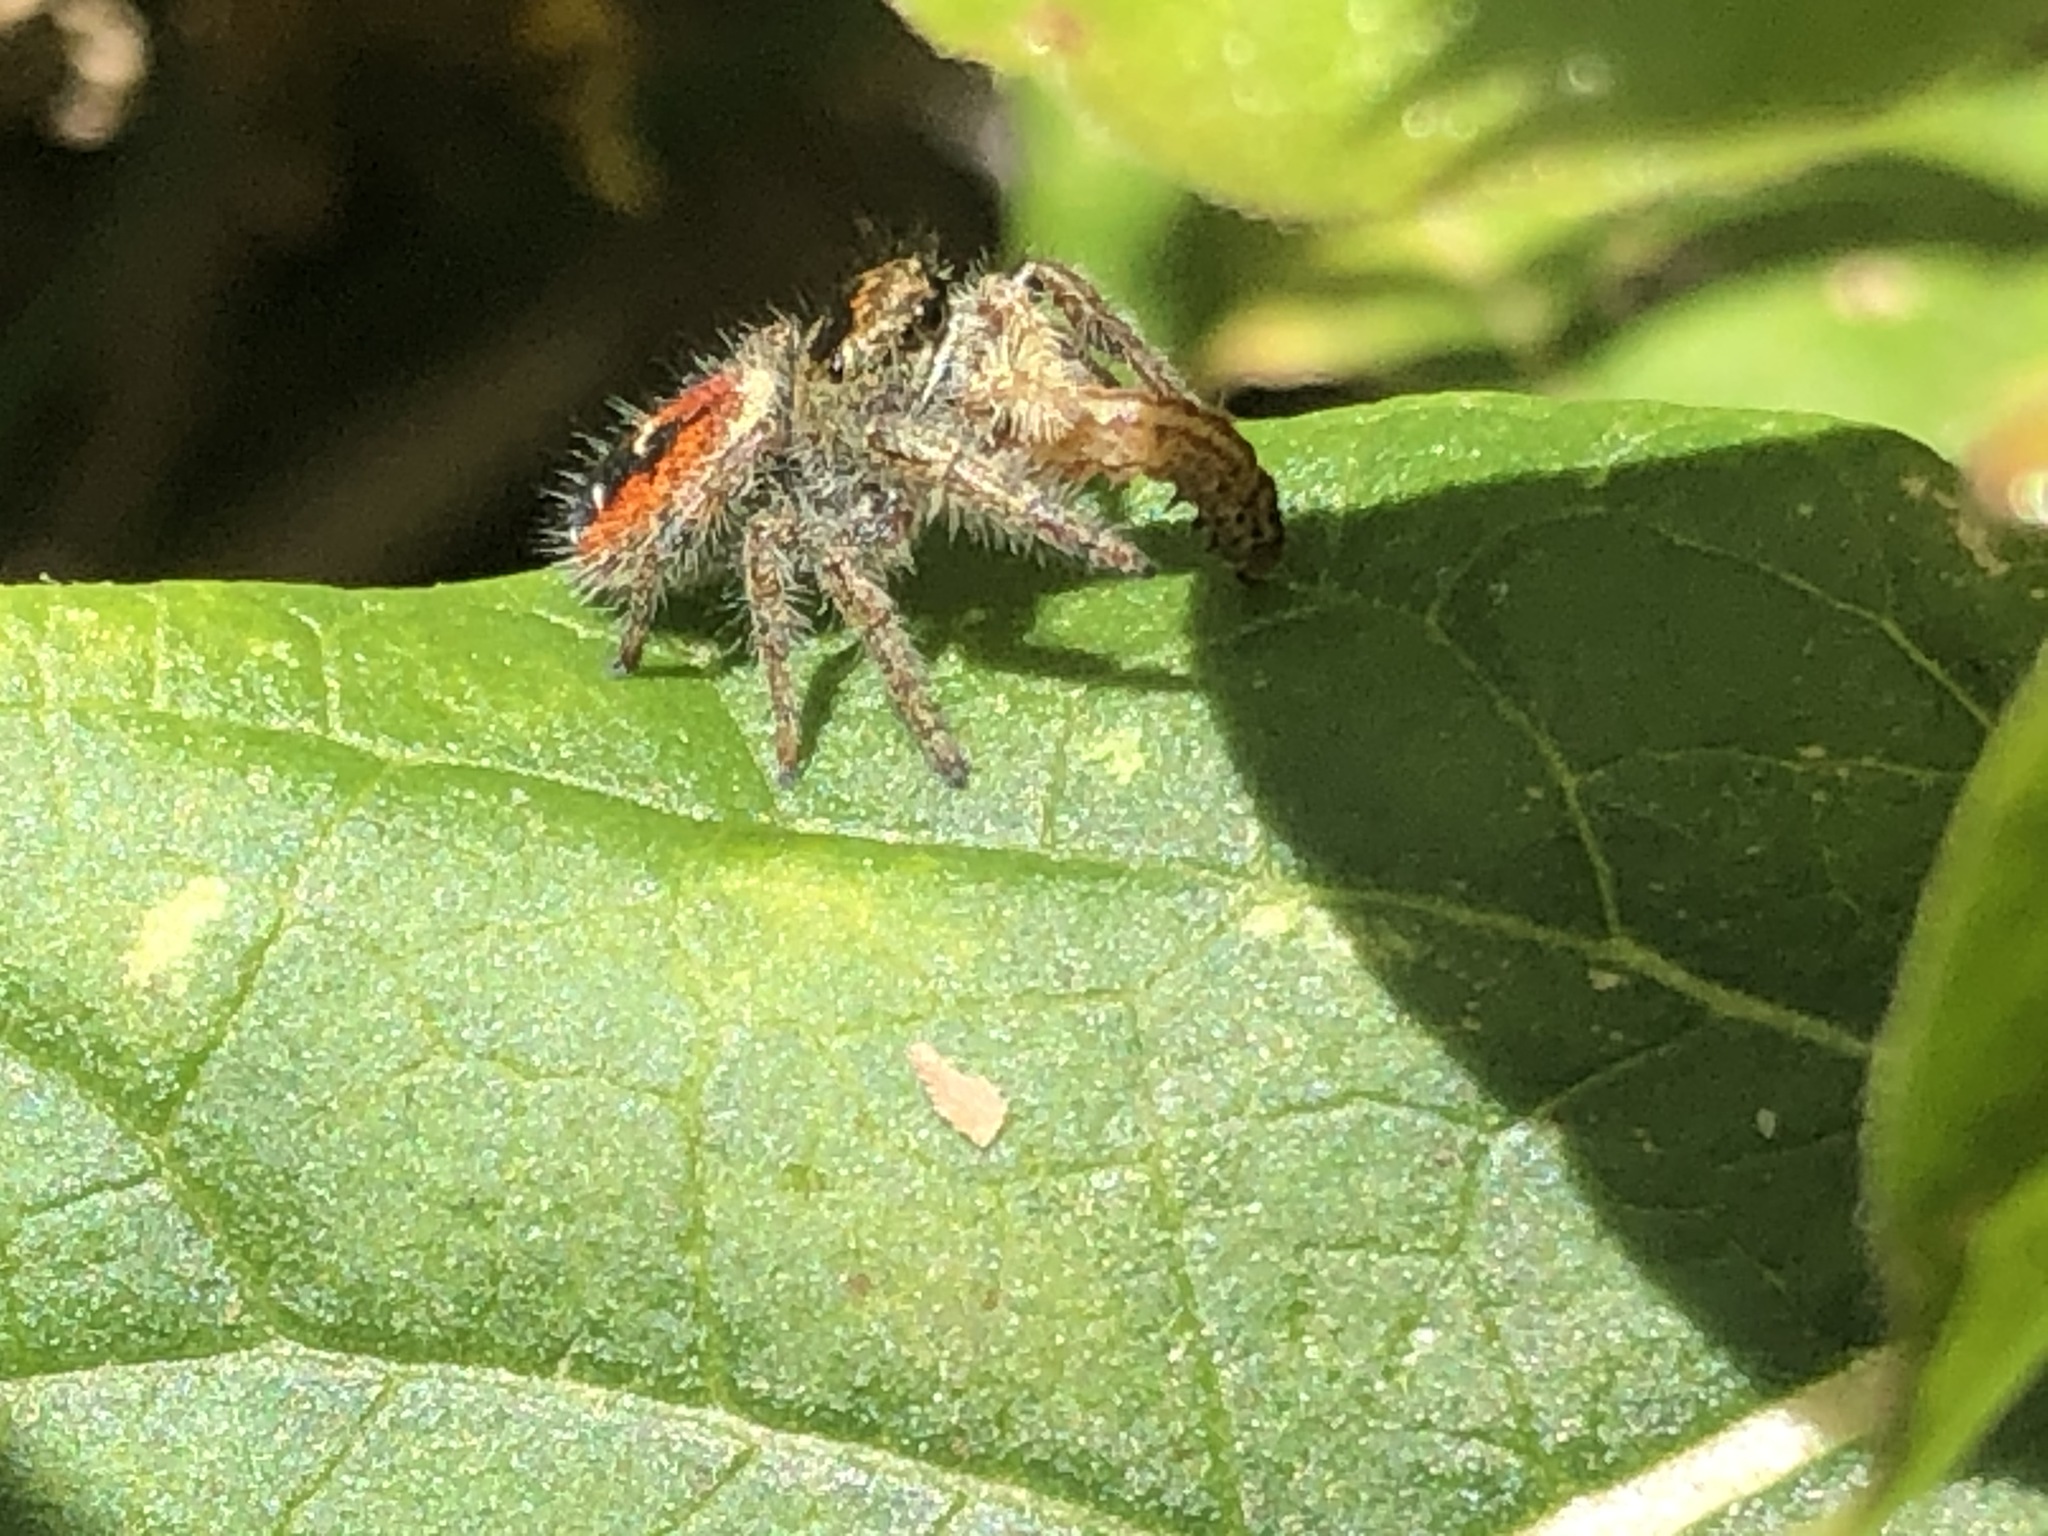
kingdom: Animalia
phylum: Arthropoda
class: Arachnida
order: Araneae
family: Salticidae
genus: Phidippus
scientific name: Phidippus johnsoni
